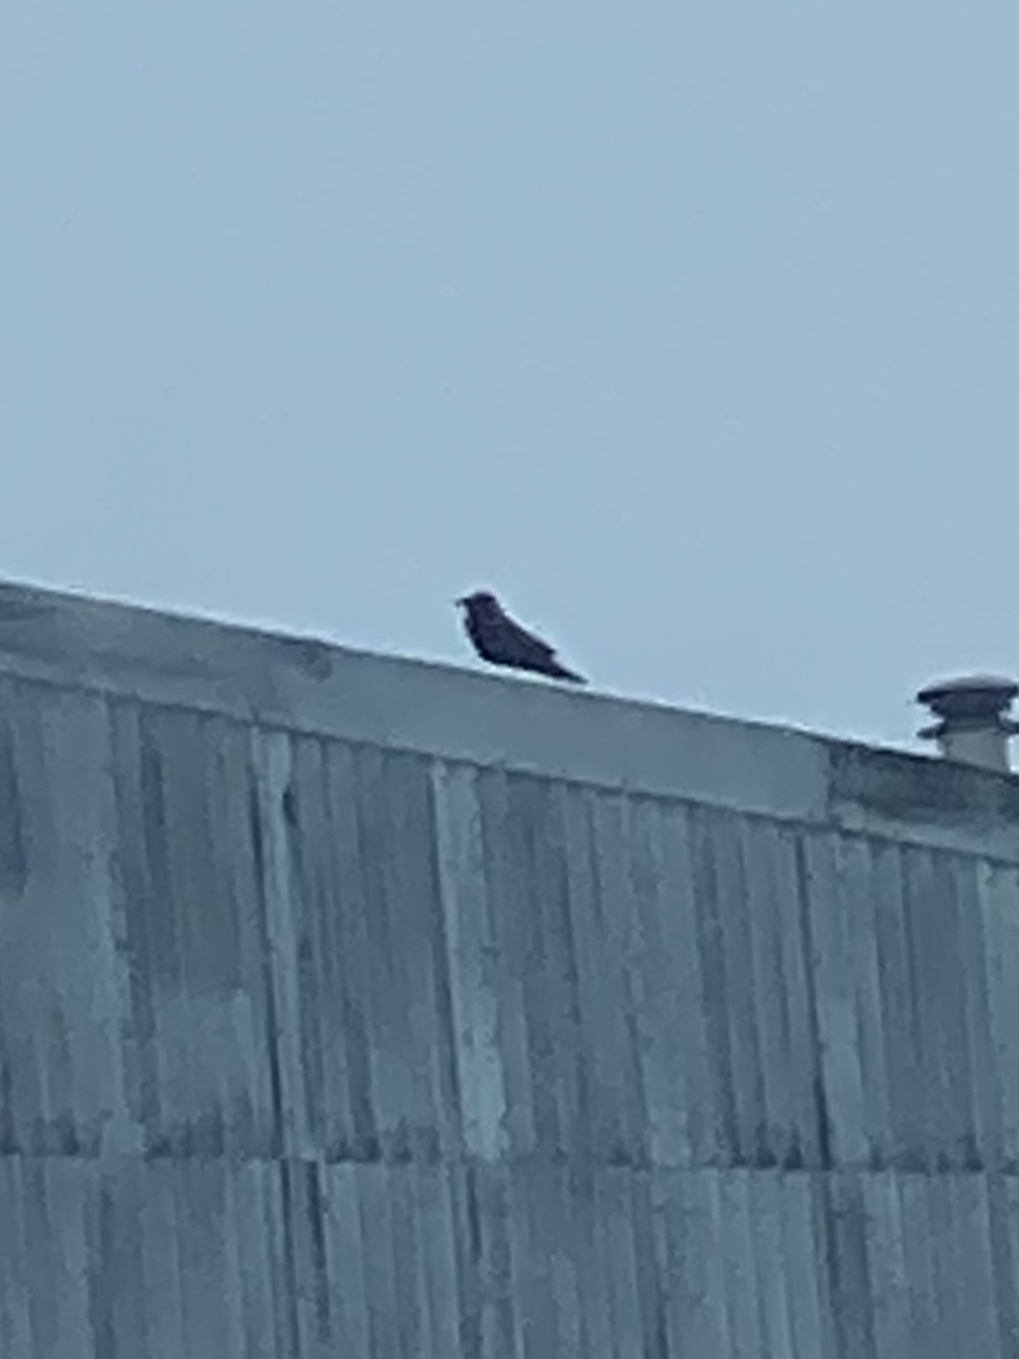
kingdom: Animalia
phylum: Chordata
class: Aves
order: Passeriformes
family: Corvidae
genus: Corvus
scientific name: Corvus corax
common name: Common raven
